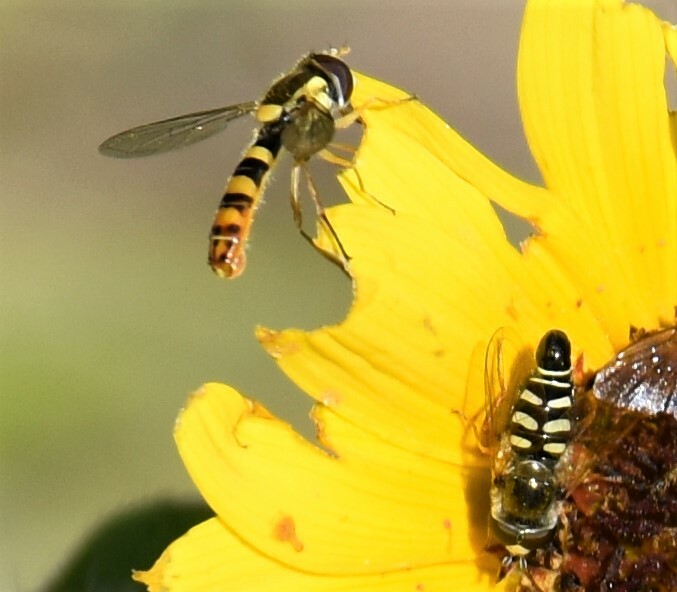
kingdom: Animalia
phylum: Arthropoda
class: Insecta
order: Diptera
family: Syrphidae
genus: Sphaerophoria
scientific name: Sphaerophoria philantha
